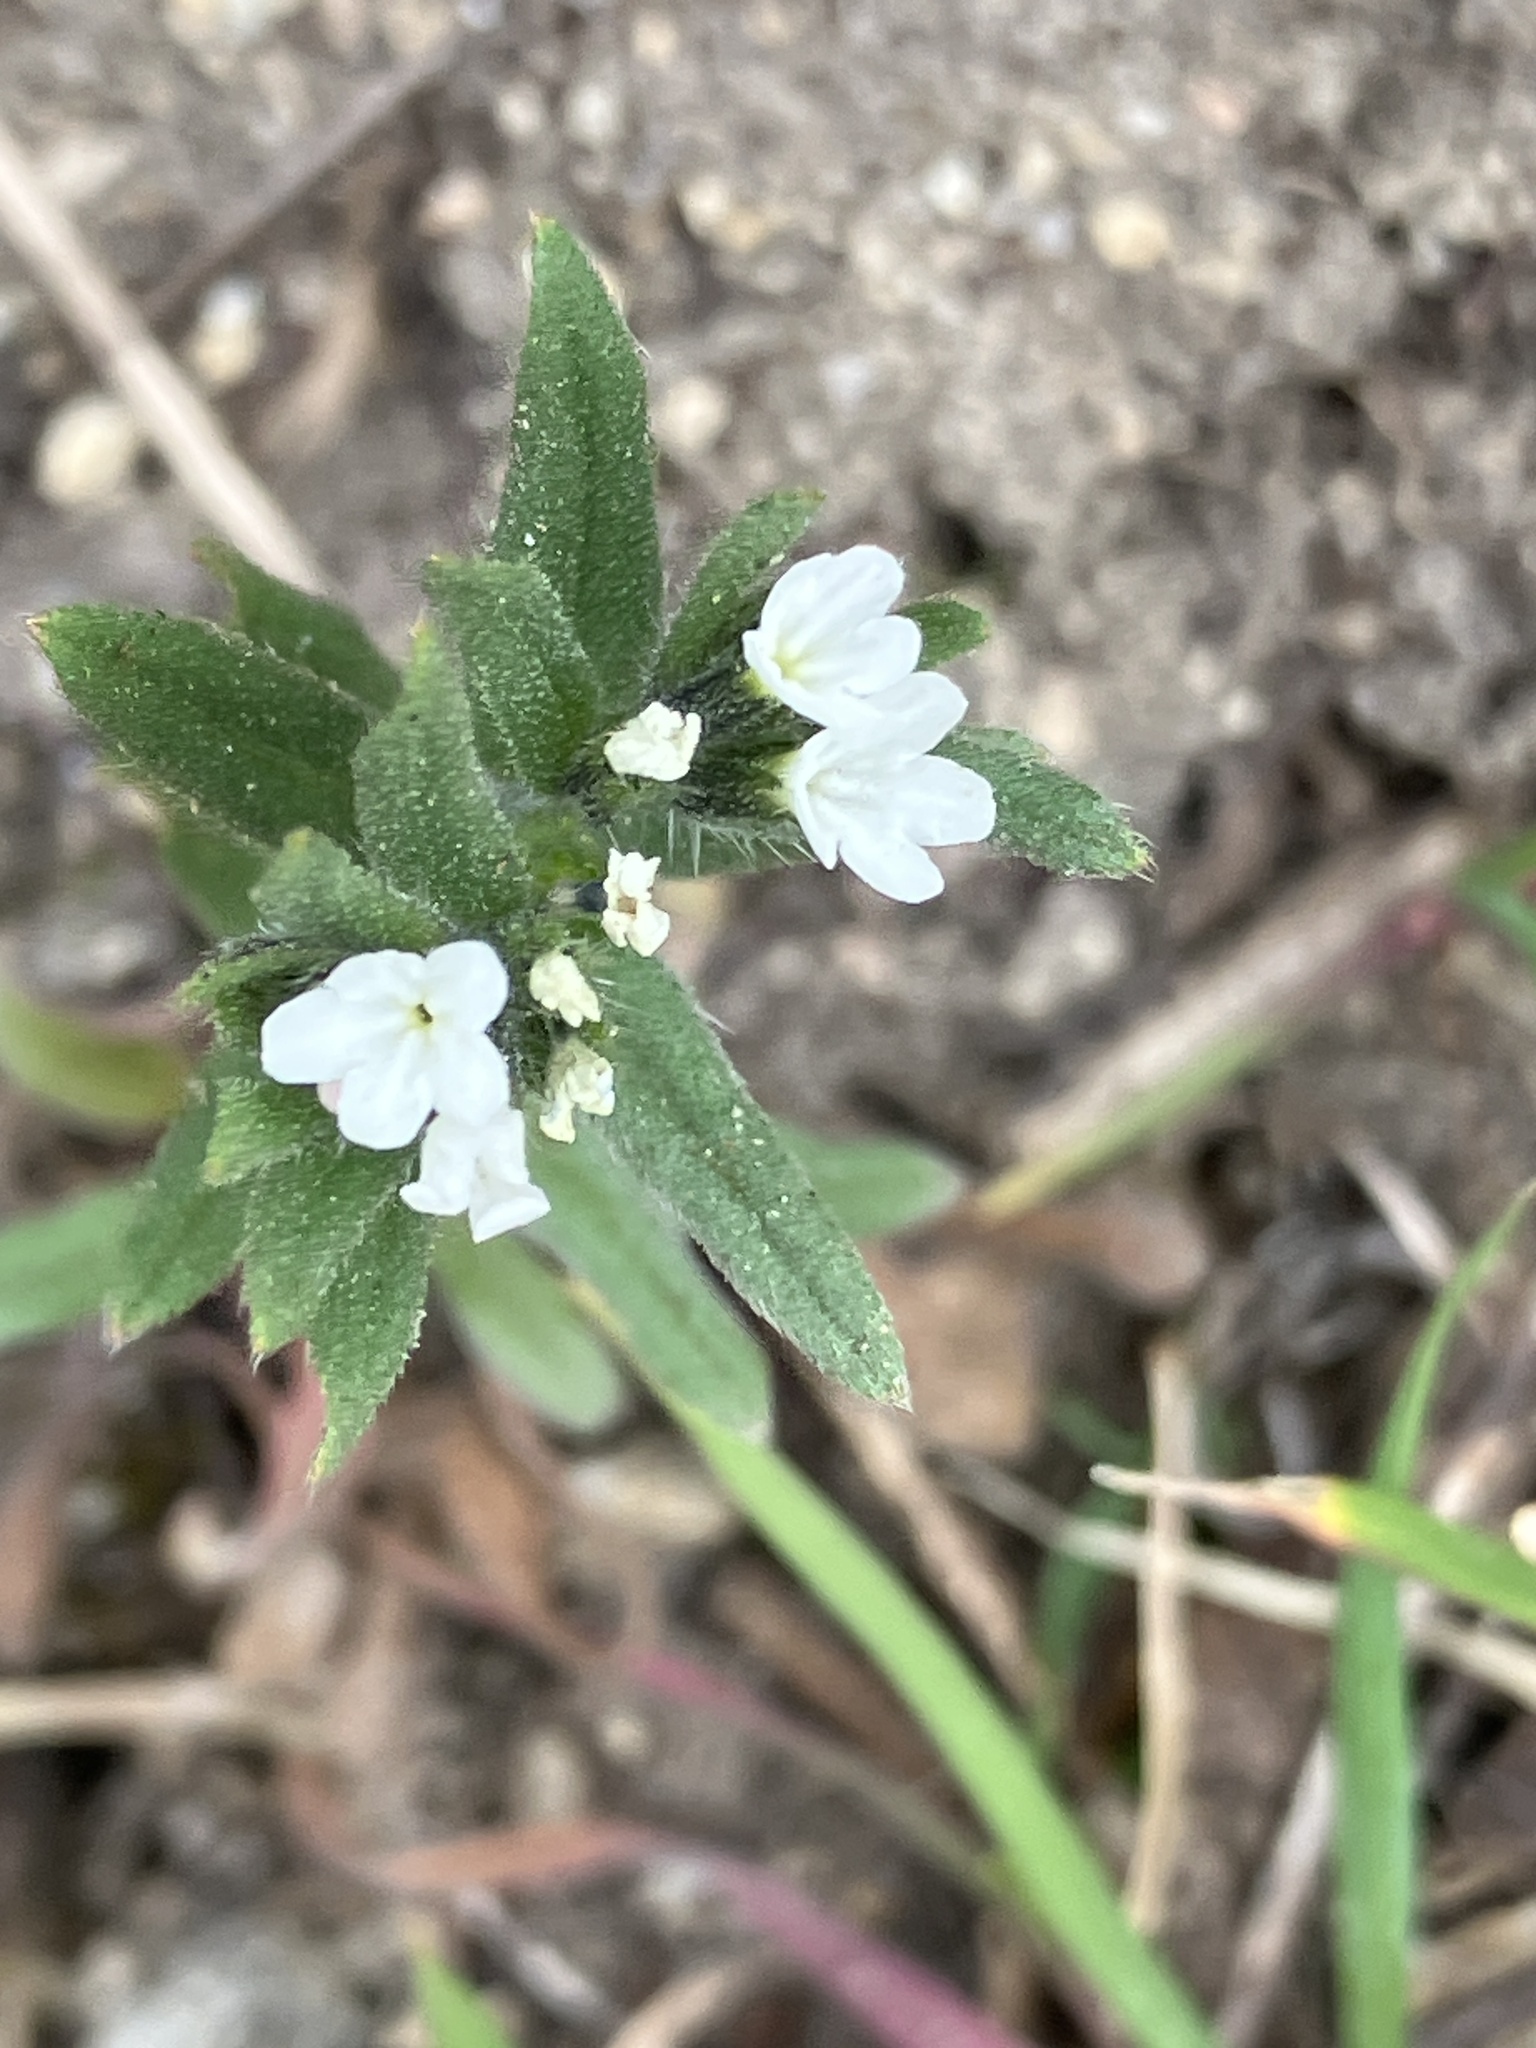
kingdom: Plantae
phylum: Tracheophyta
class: Magnoliopsida
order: Boraginales
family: Boraginaceae
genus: Buglossoides
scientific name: Buglossoides arvensis
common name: Corn gromwell
